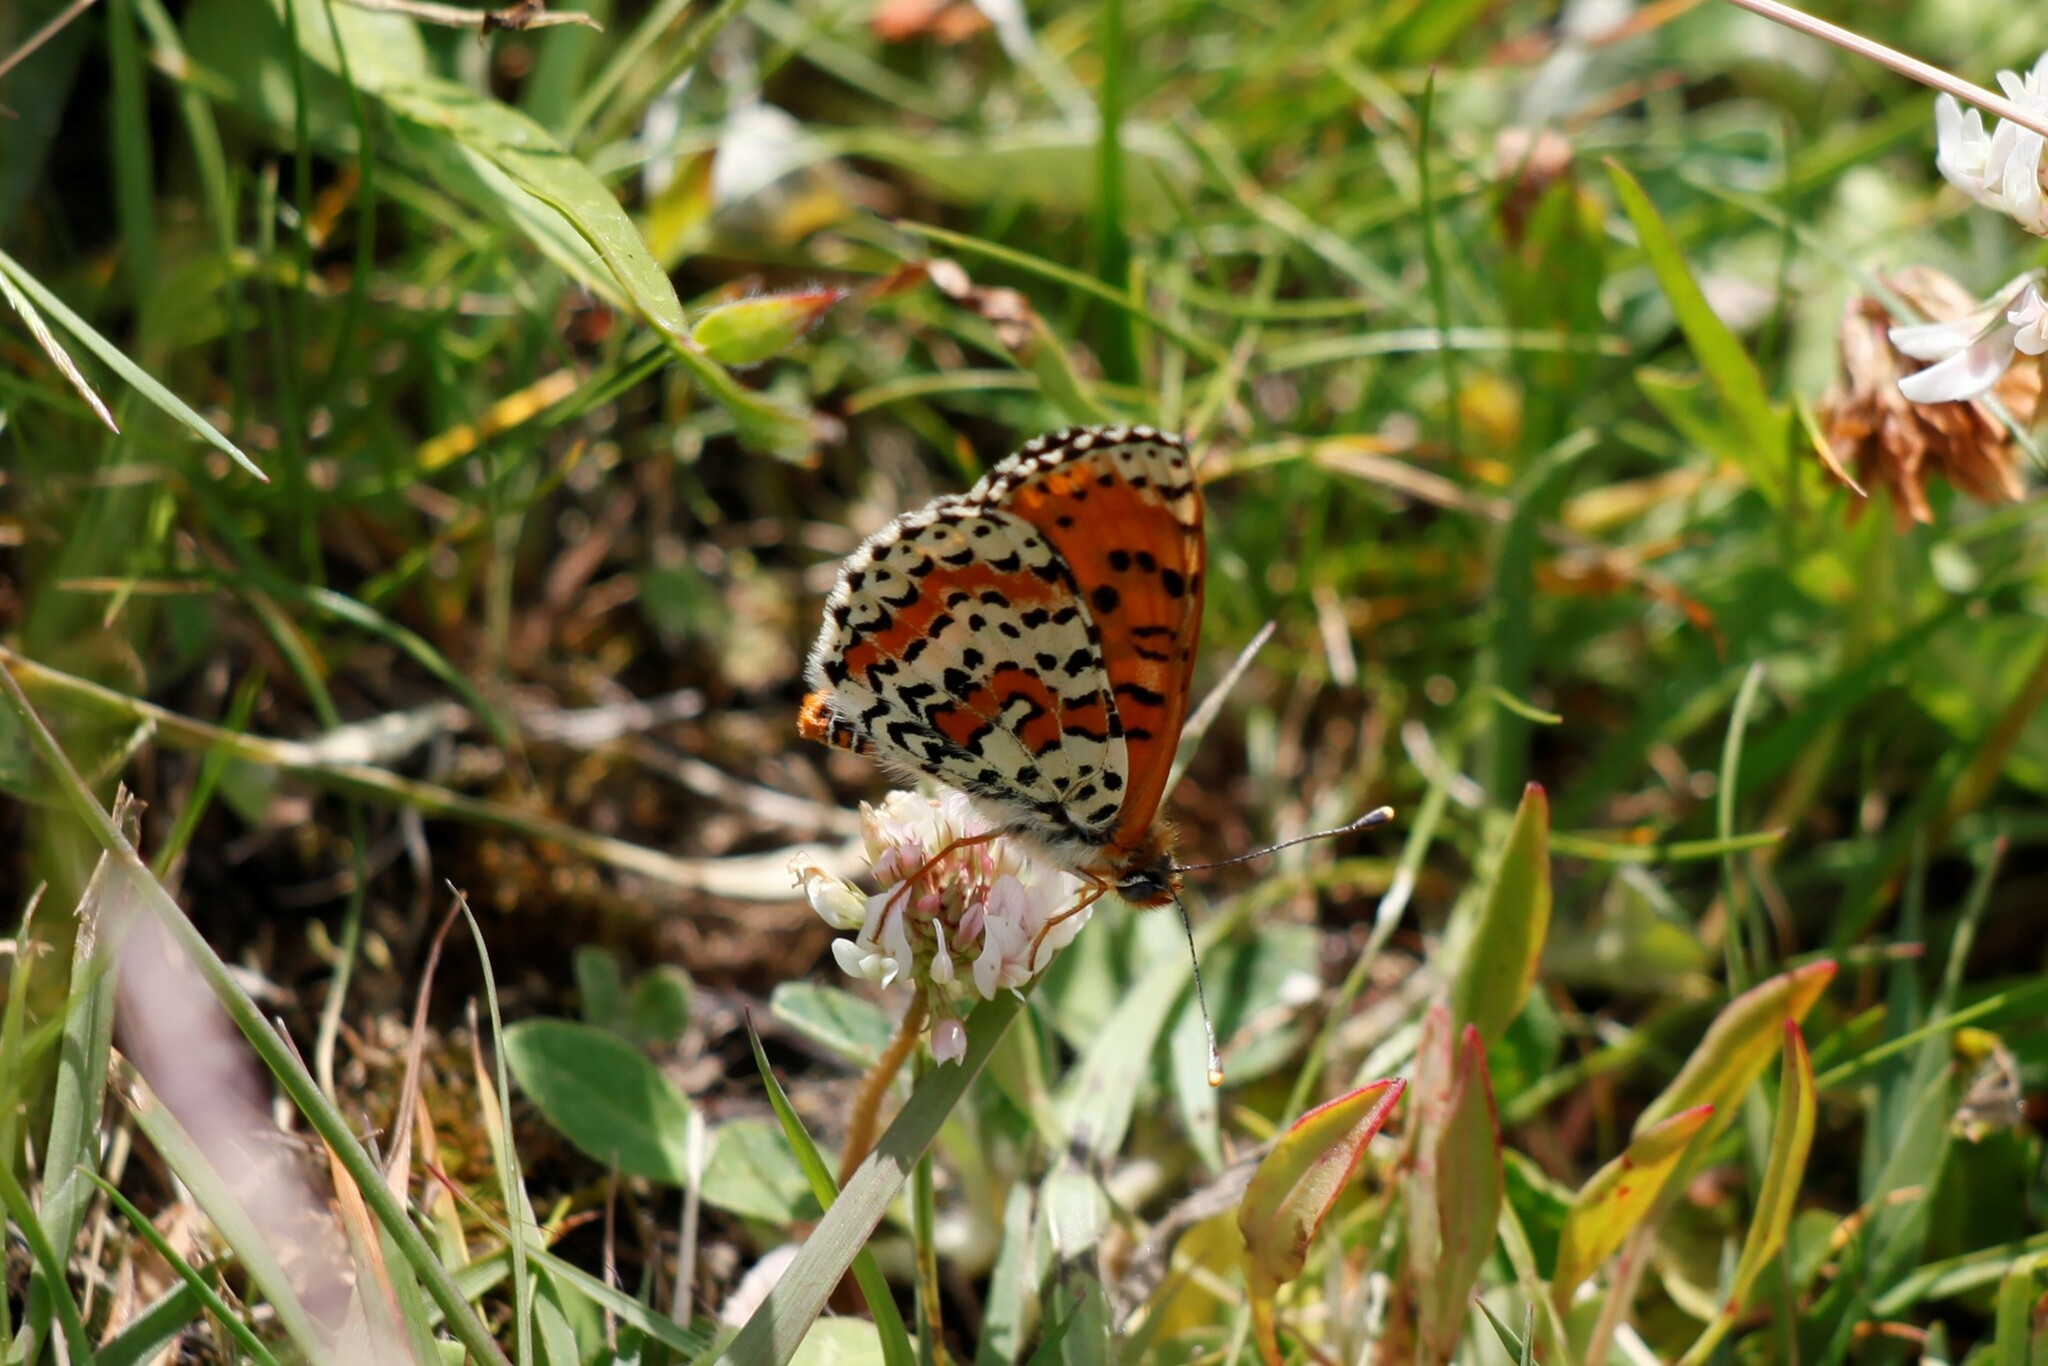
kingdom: Animalia
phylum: Arthropoda
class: Insecta
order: Lepidoptera
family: Nymphalidae
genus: Melitaea
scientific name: Melitaea didyma
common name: Spotted fritillary
